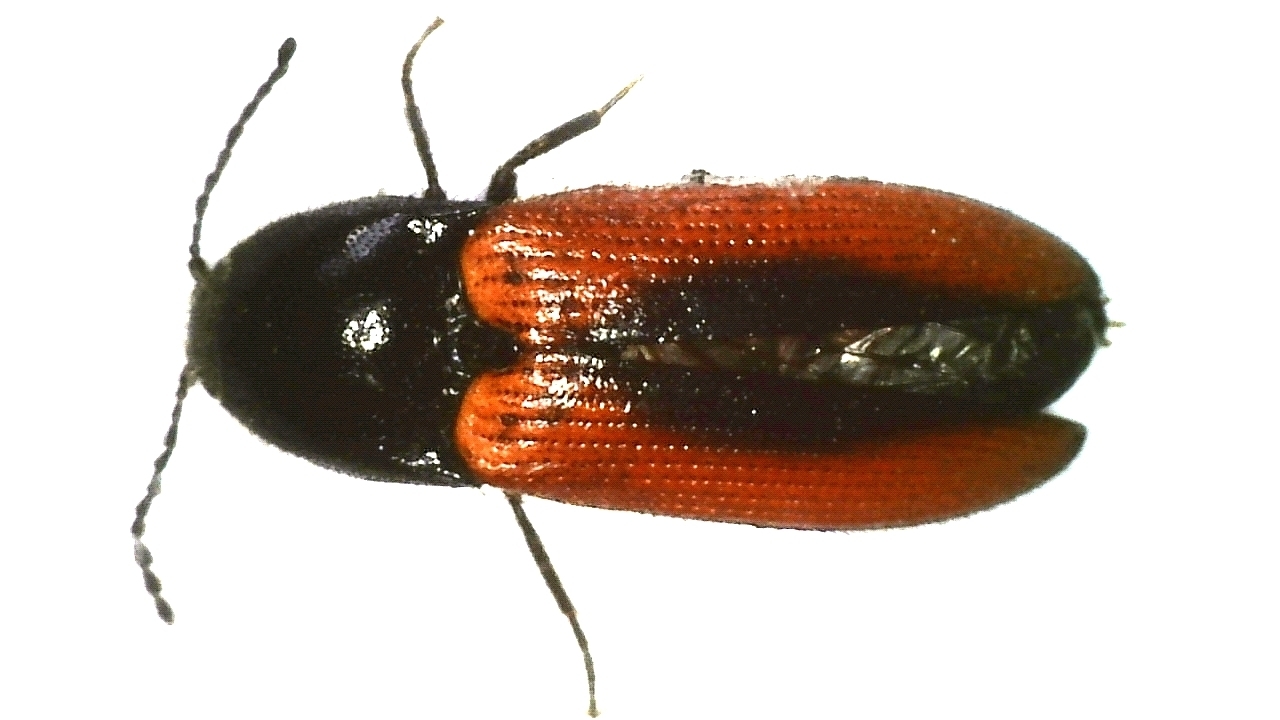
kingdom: Animalia
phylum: Arthropoda
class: Insecta
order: Coleoptera
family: Elateridae
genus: Ampedus
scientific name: Ampedus sanguinolentus
